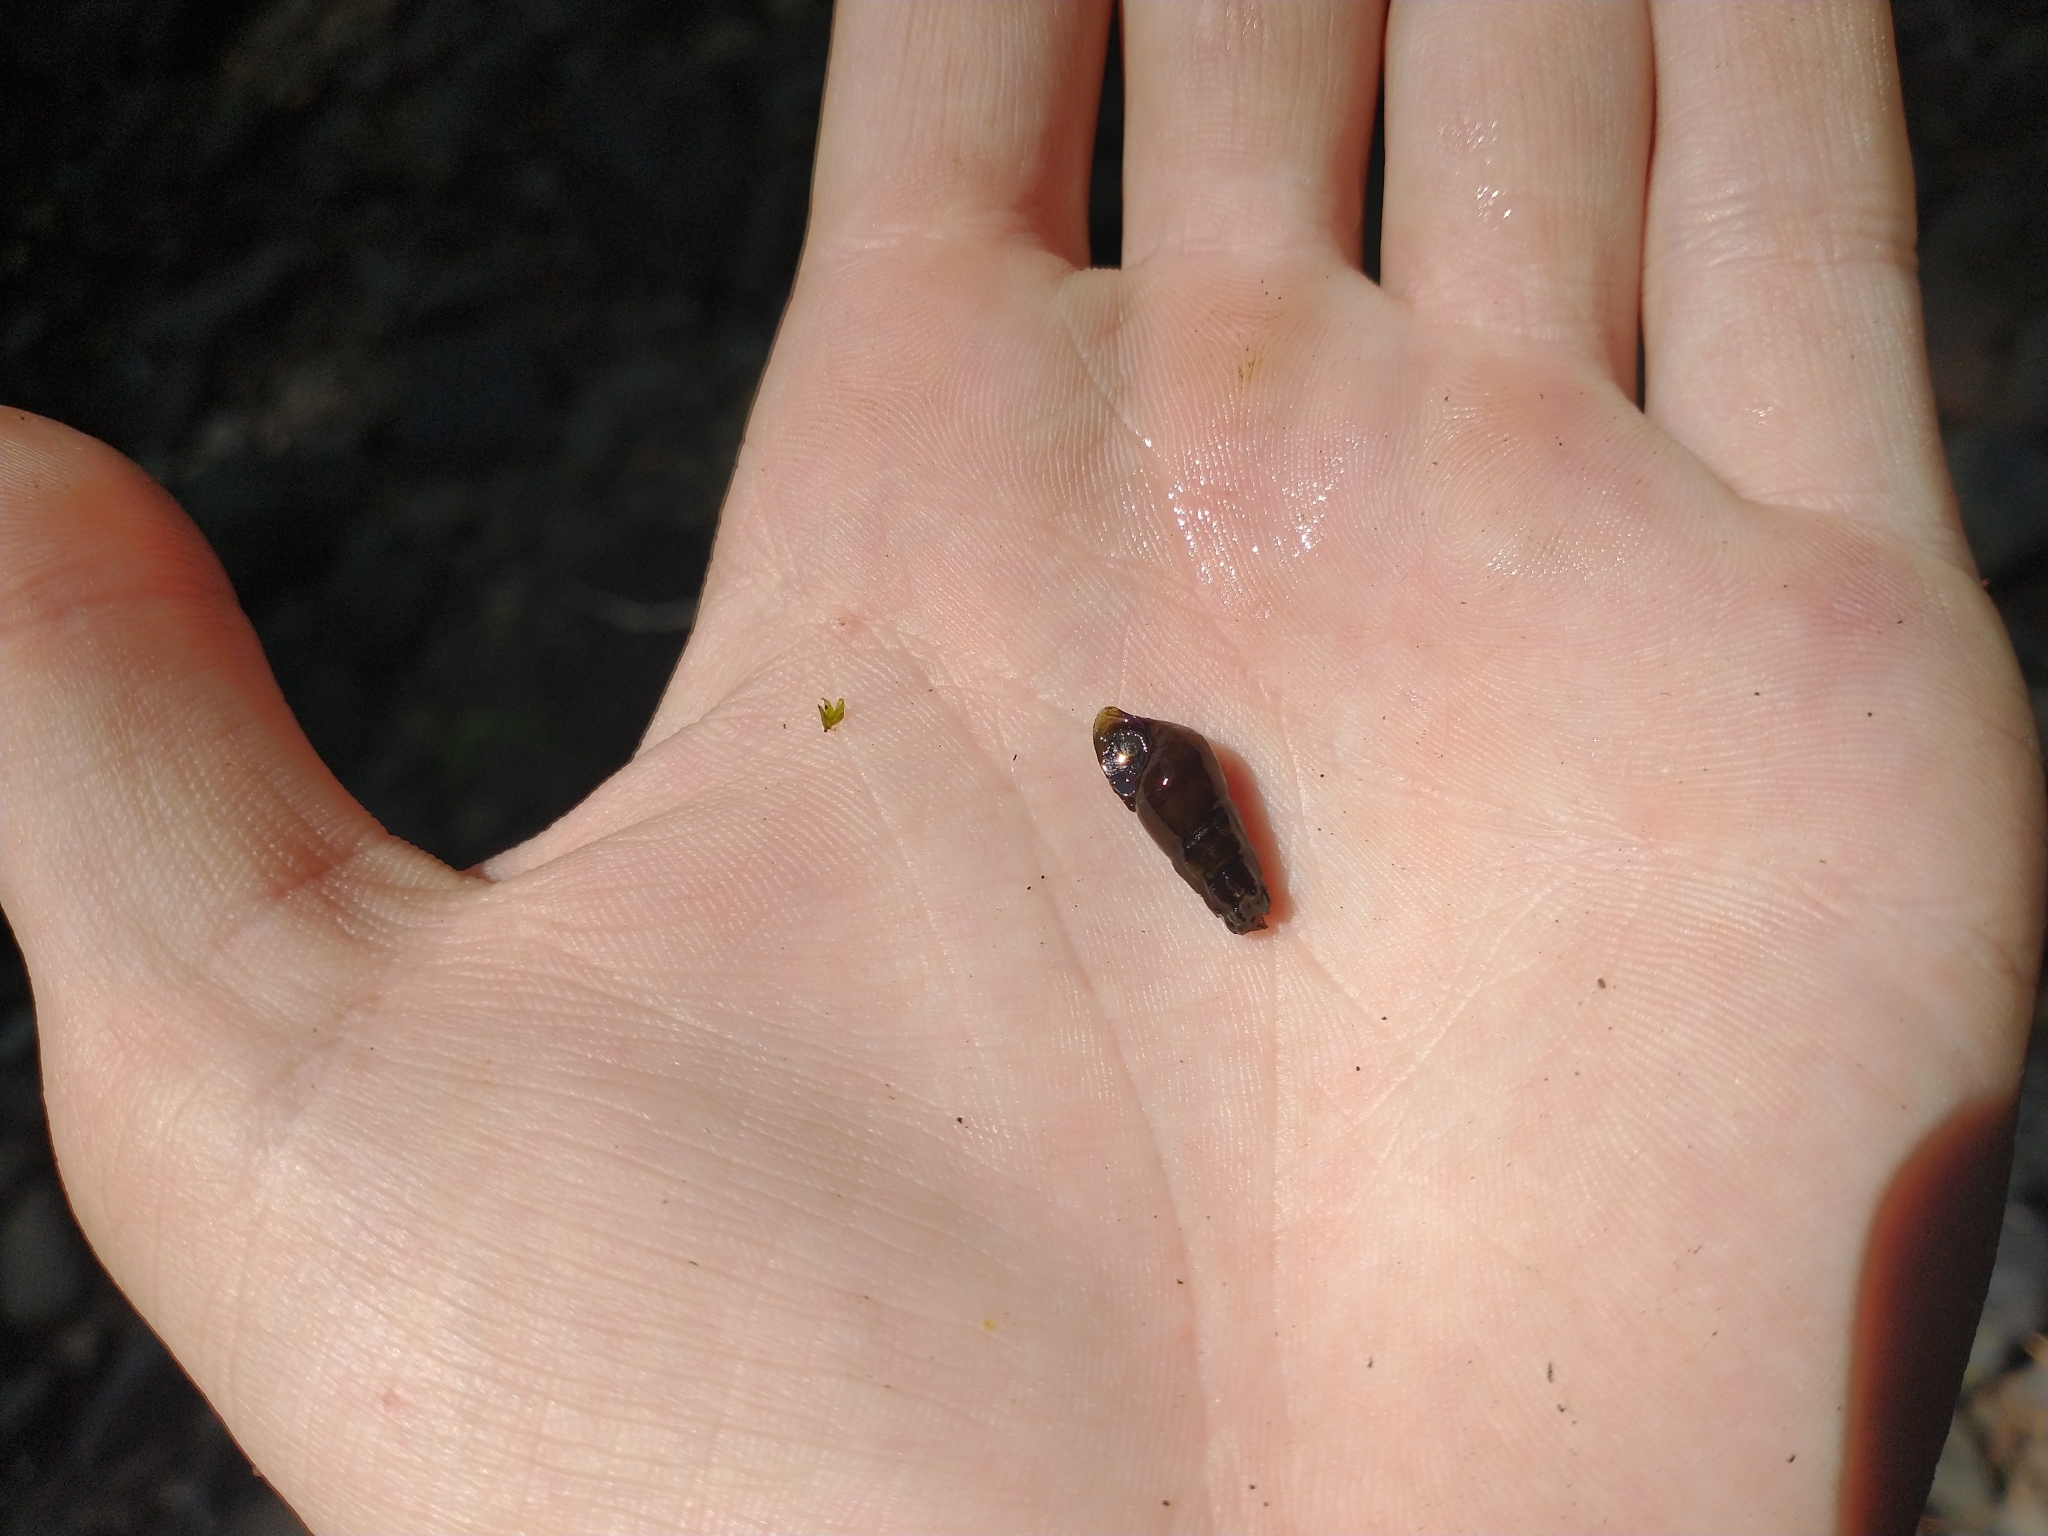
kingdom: Animalia
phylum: Mollusca
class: Gastropoda
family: Semisulcospiridae
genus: Juga
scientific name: Juga plicifera
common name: Pleated juga
